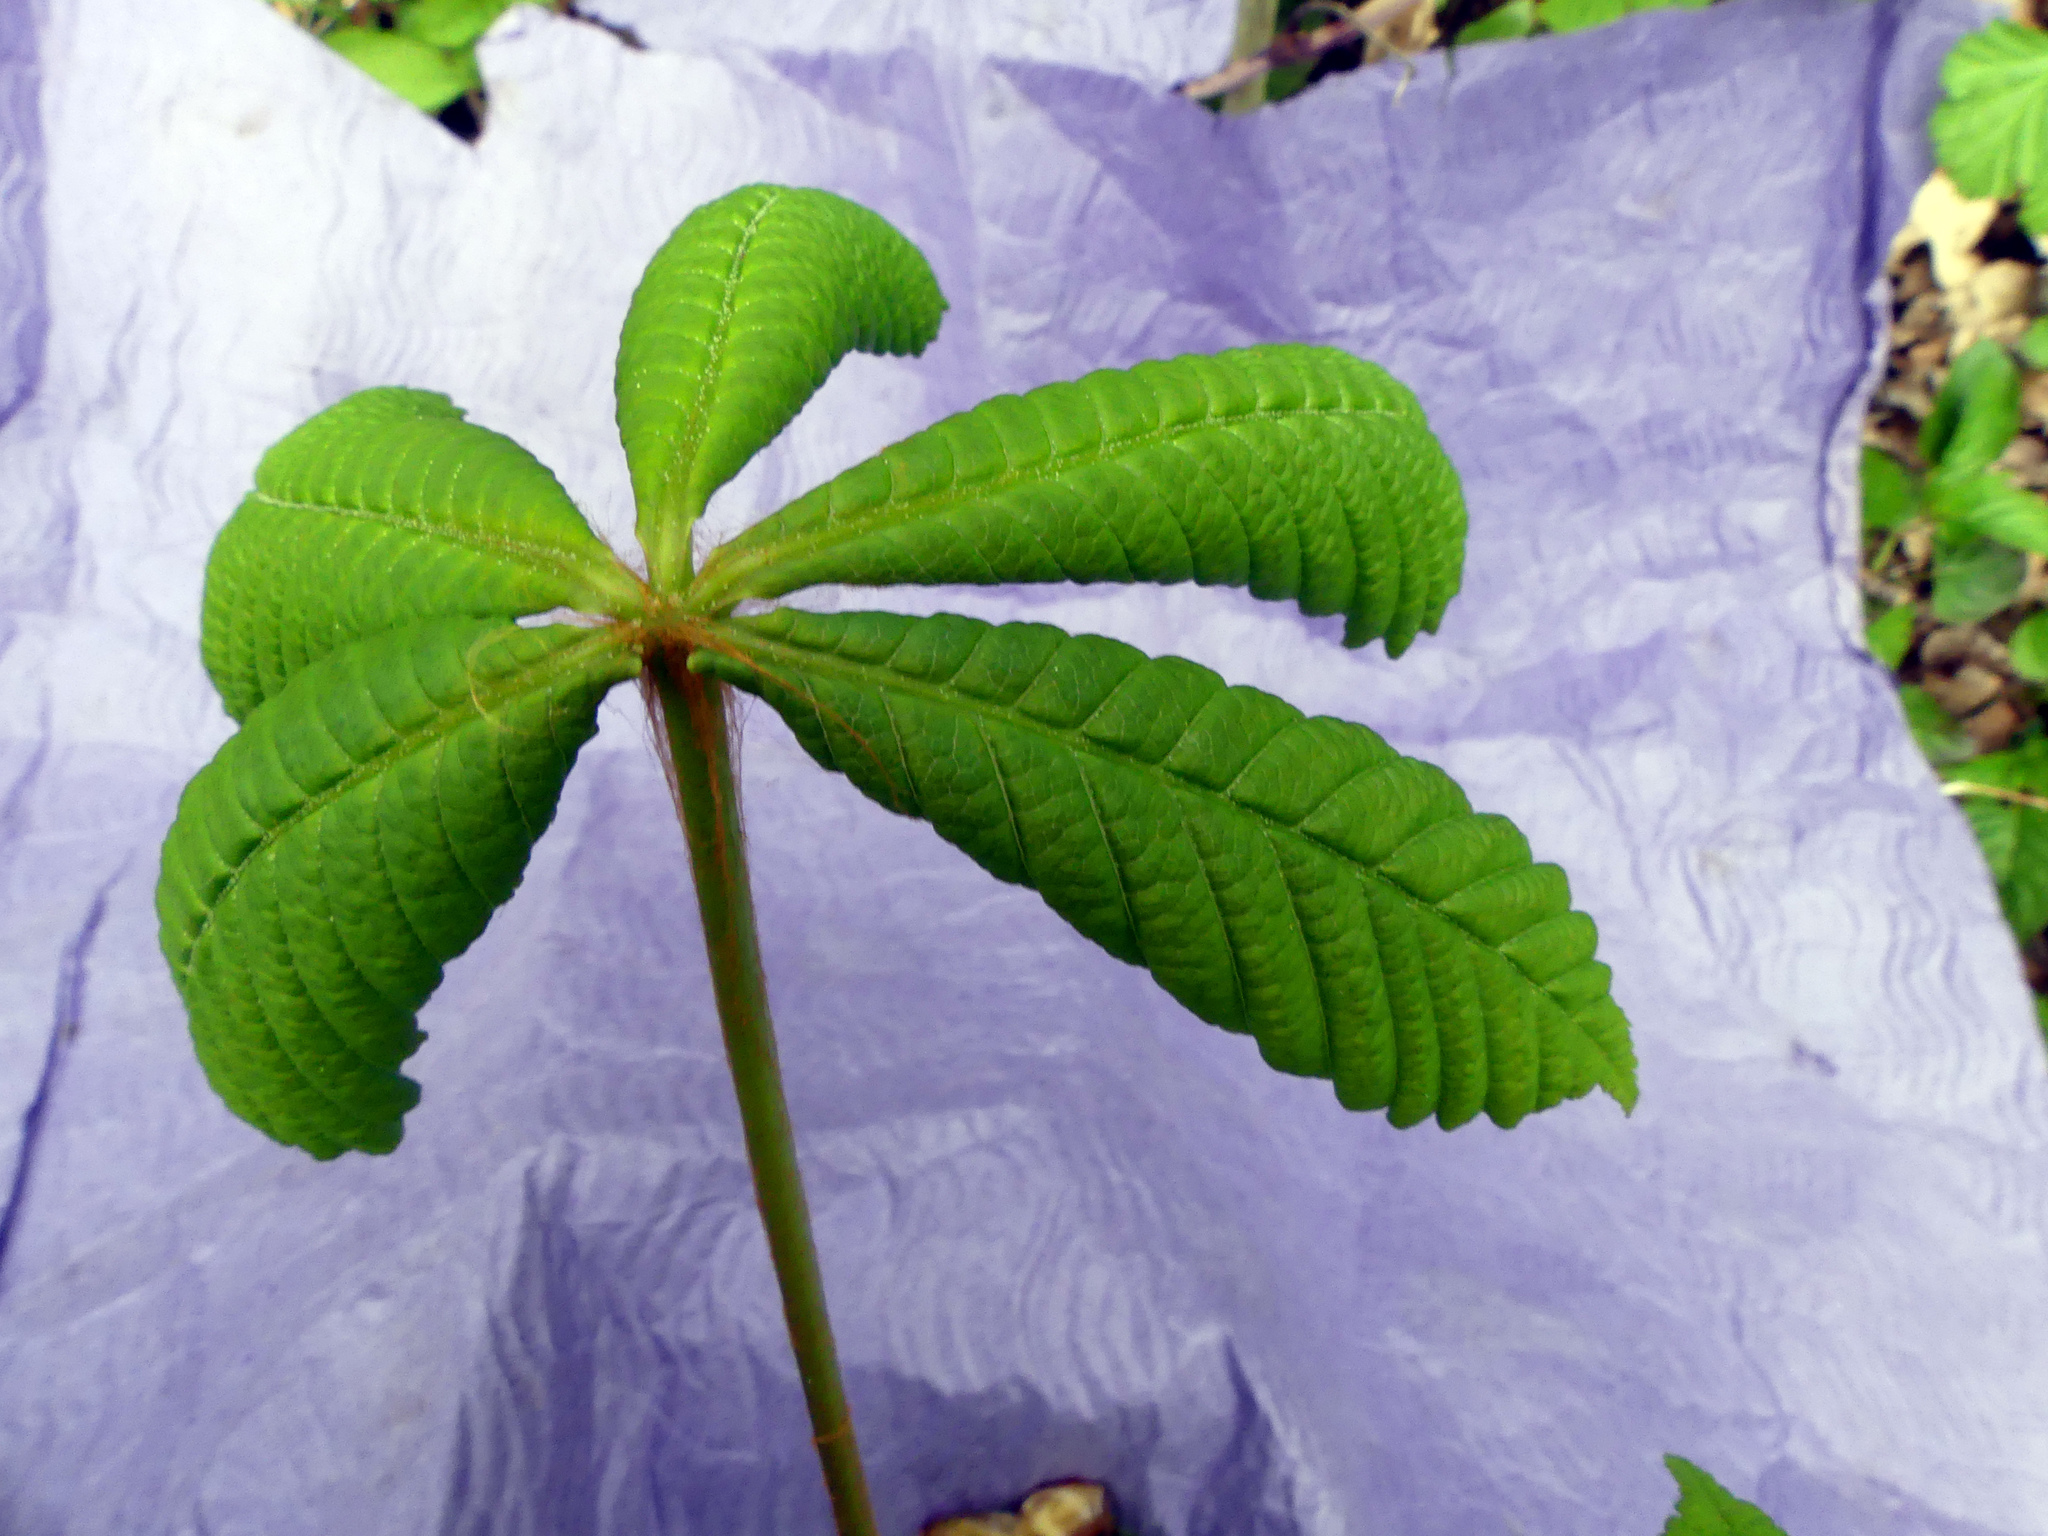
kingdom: Plantae
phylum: Tracheophyta
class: Magnoliopsida
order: Sapindales
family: Sapindaceae
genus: Aesculus
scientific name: Aesculus hippocastanum
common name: Horse-chestnut
